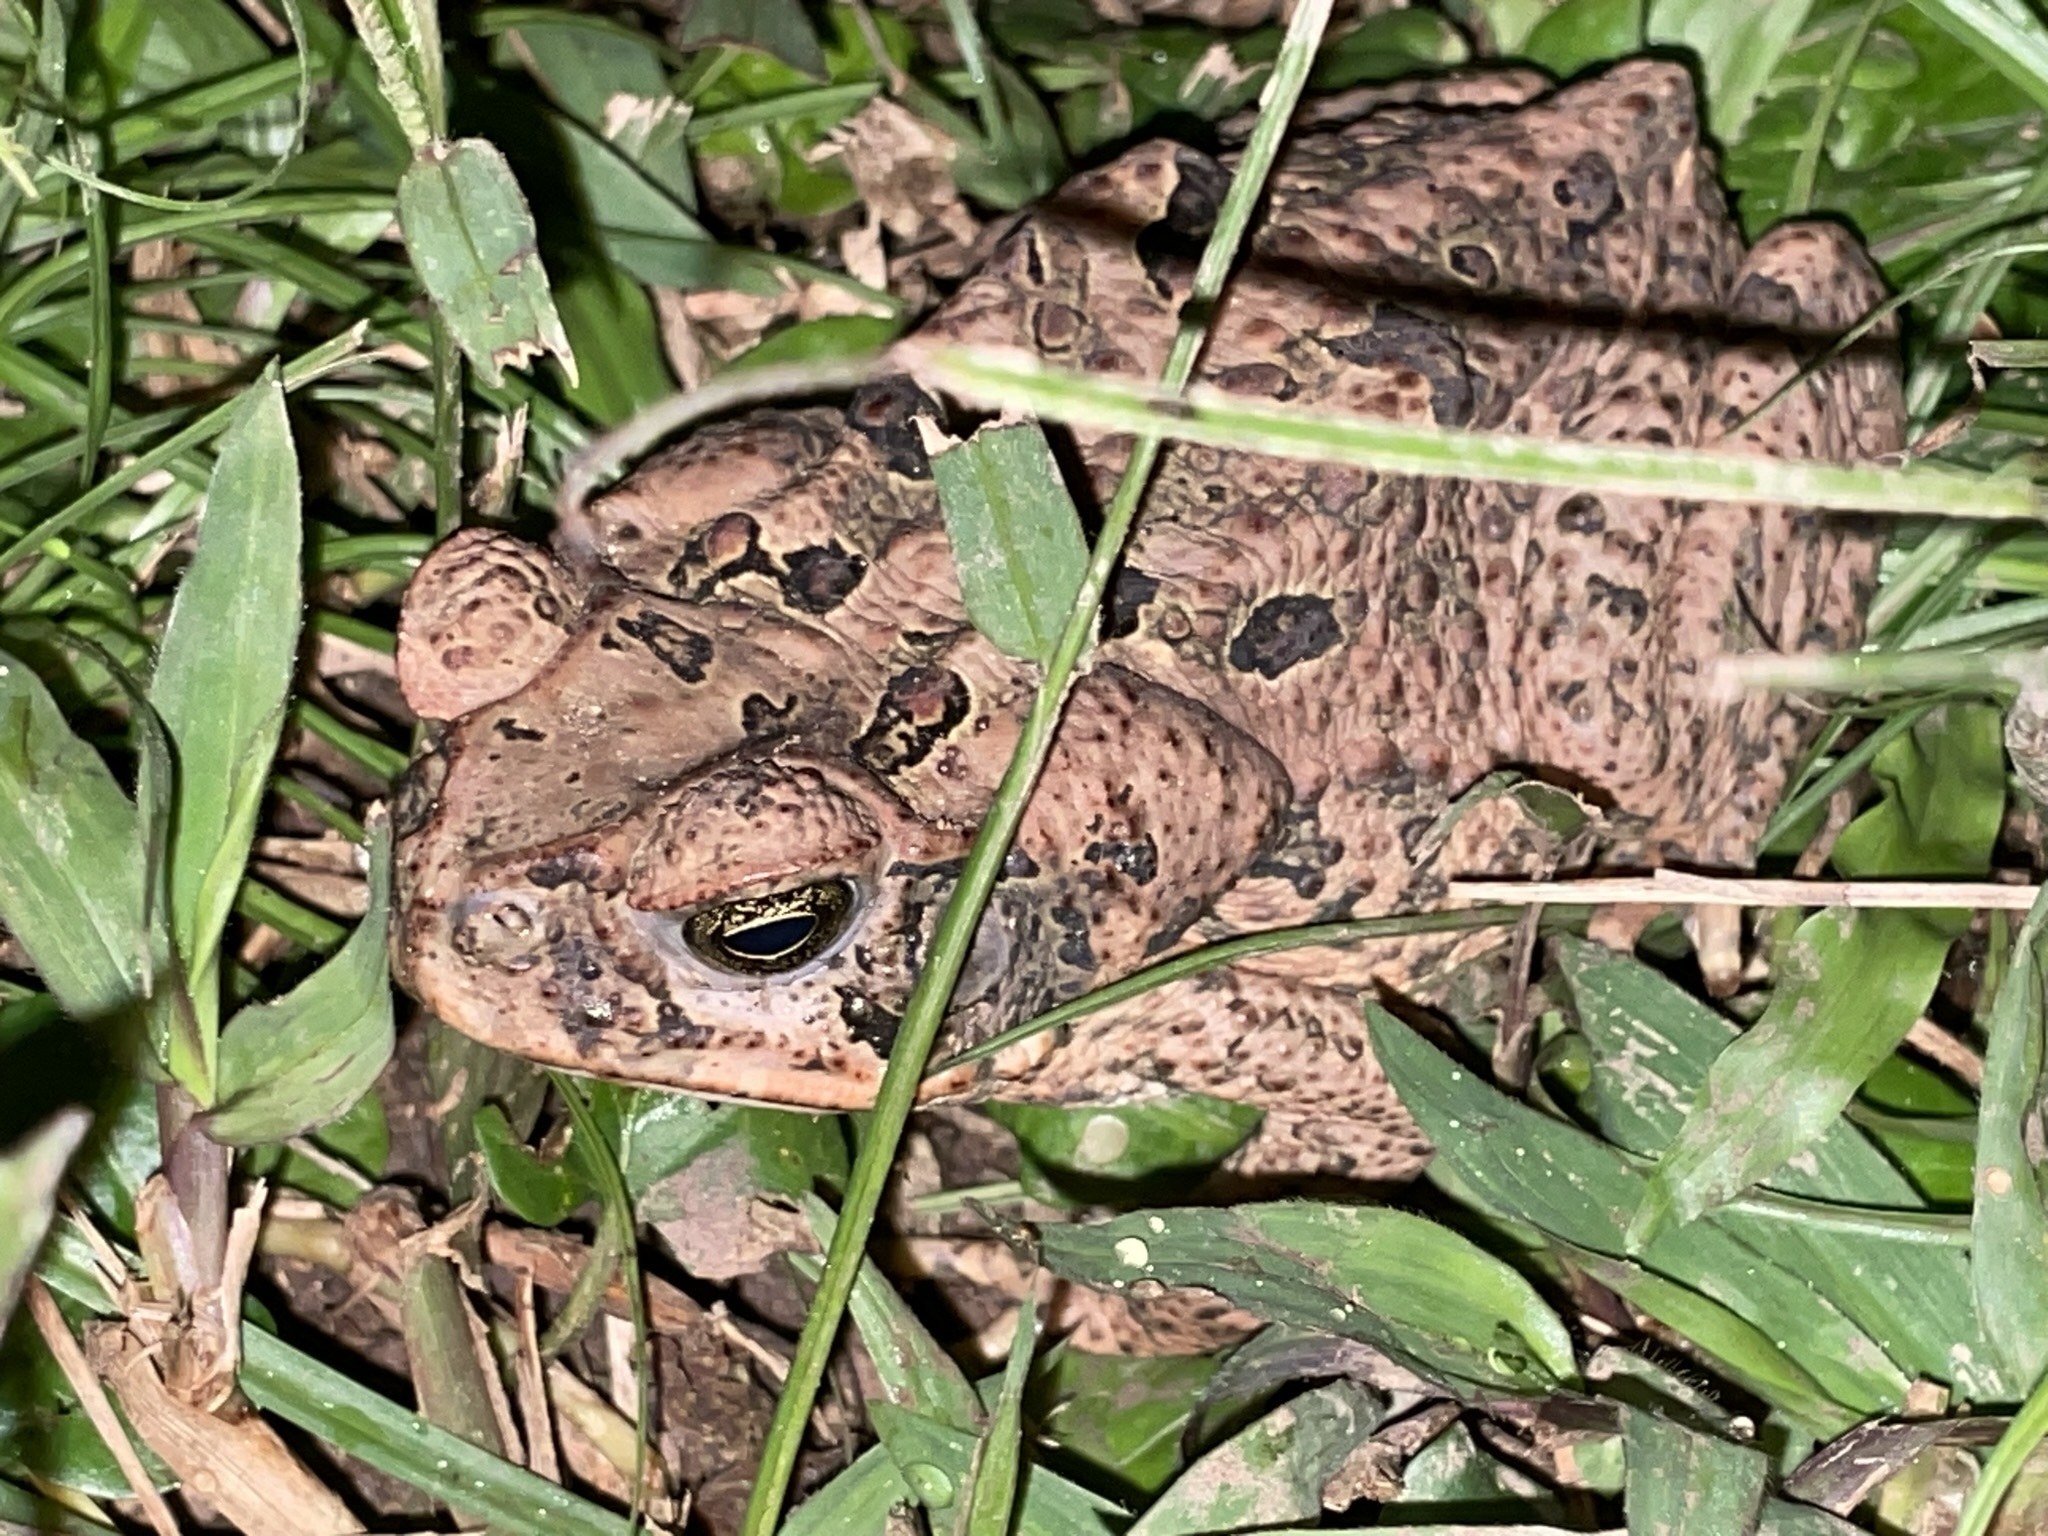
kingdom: Animalia
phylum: Chordata
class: Amphibia
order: Anura
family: Bufonidae
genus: Rhinella
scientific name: Rhinella marina
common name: Cane toad
